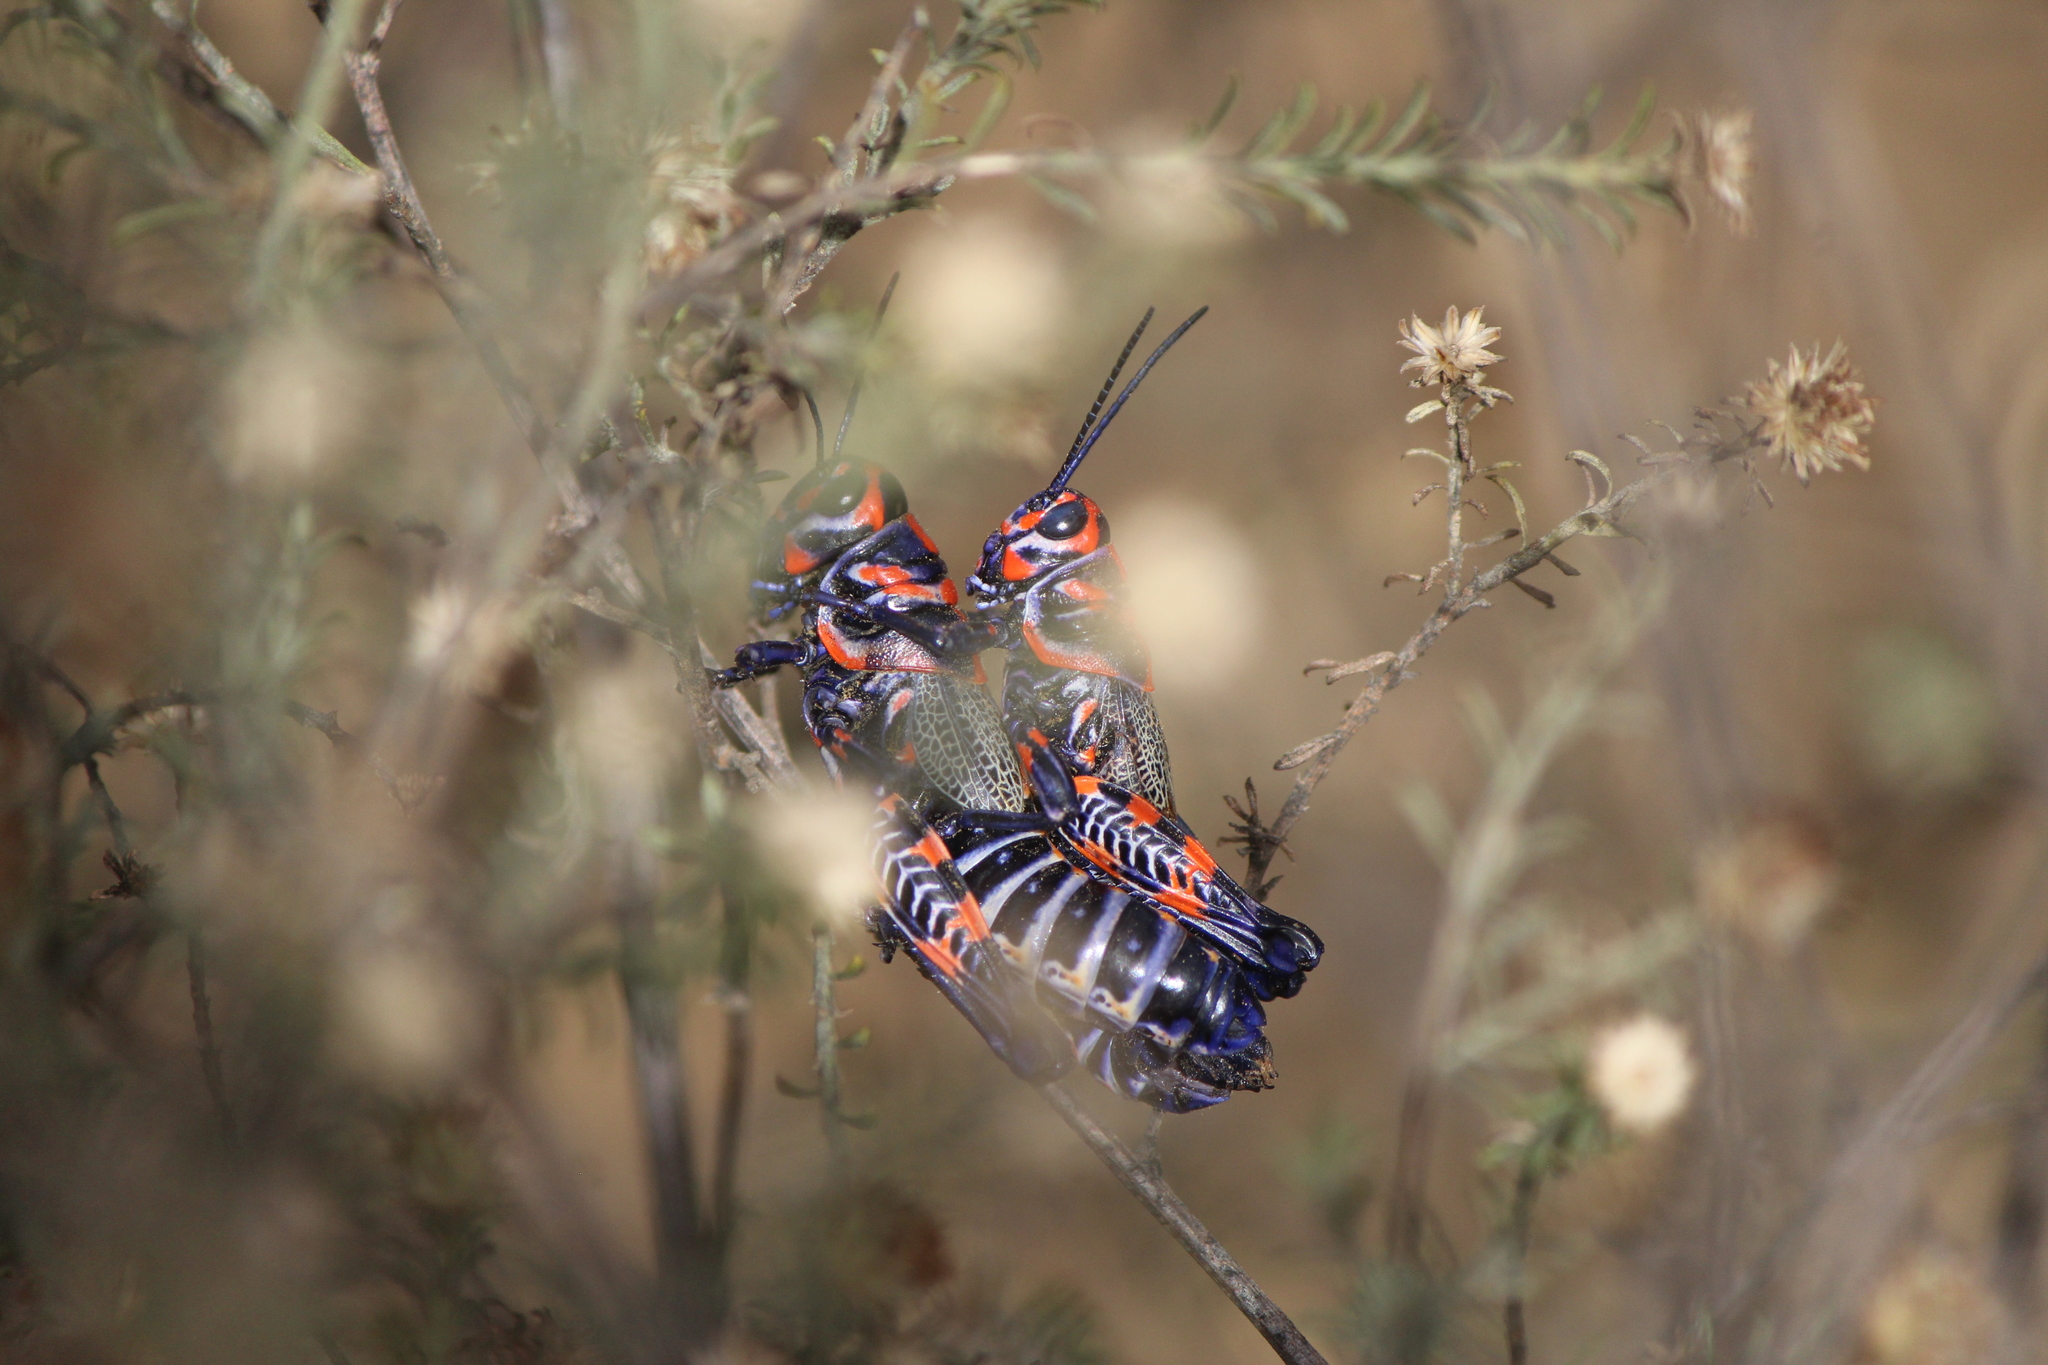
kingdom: Animalia
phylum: Arthropoda
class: Insecta
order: Orthoptera
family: Acrididae
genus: Dactylotum
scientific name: Dactylotum bicolor
